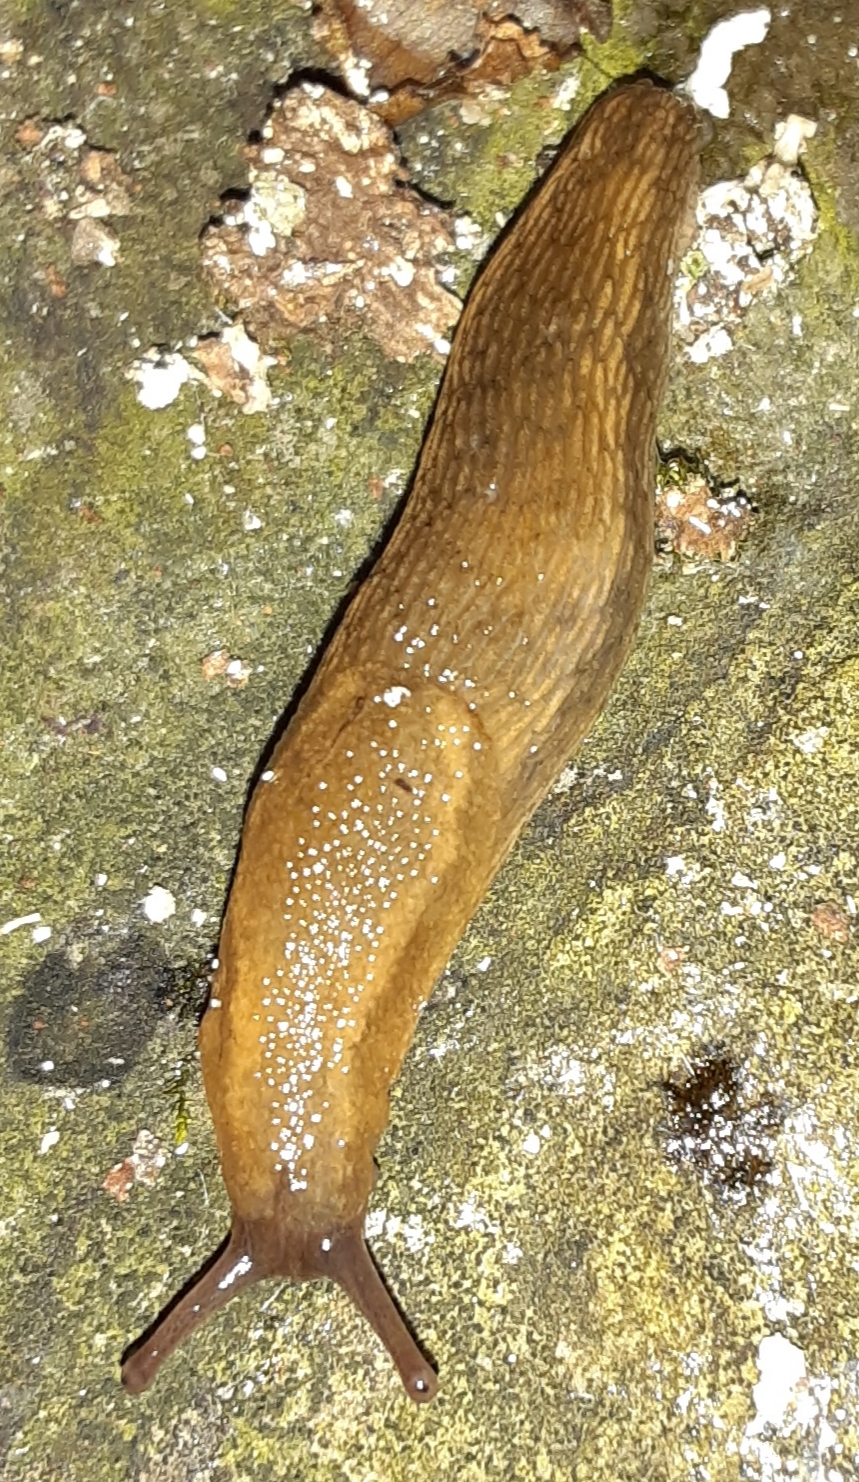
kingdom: Animalia
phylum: Mollusca
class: Gastropoda
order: Stylommatophora
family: Arionidae
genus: Arion
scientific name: Arion subfuscus
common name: Dusky arion
